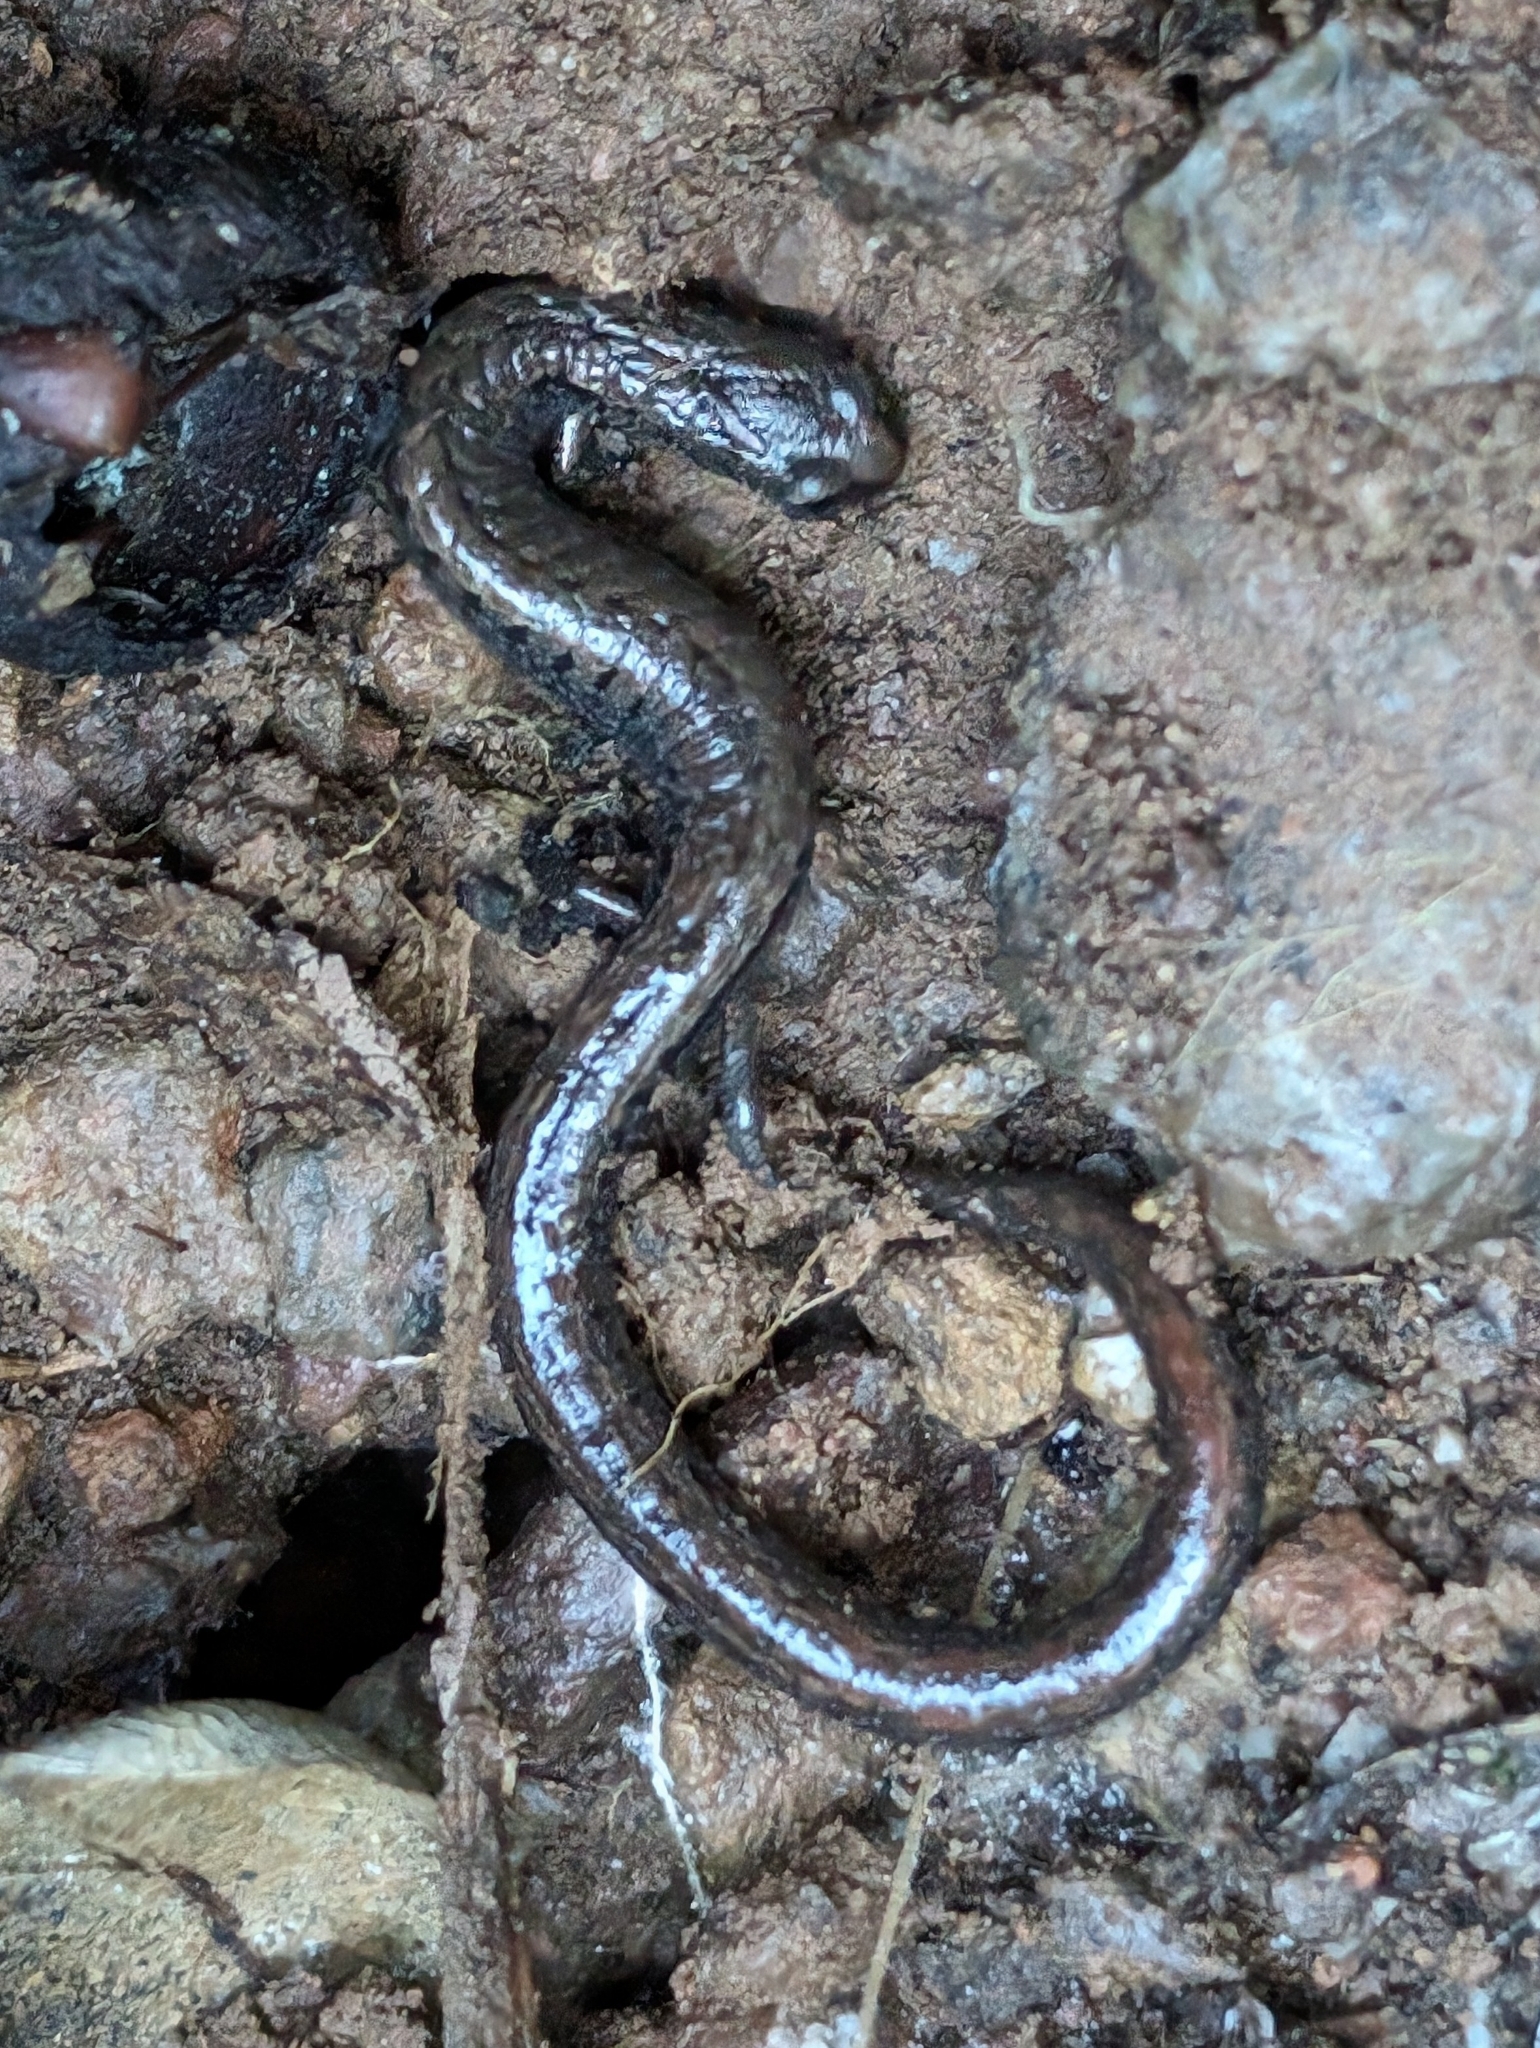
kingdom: Animalia
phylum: Chordata
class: Amphibia
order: Caudata
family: Plethodontidae
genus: Batrachoseps
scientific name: Batrachoseps attenuatus
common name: California slender salamander
